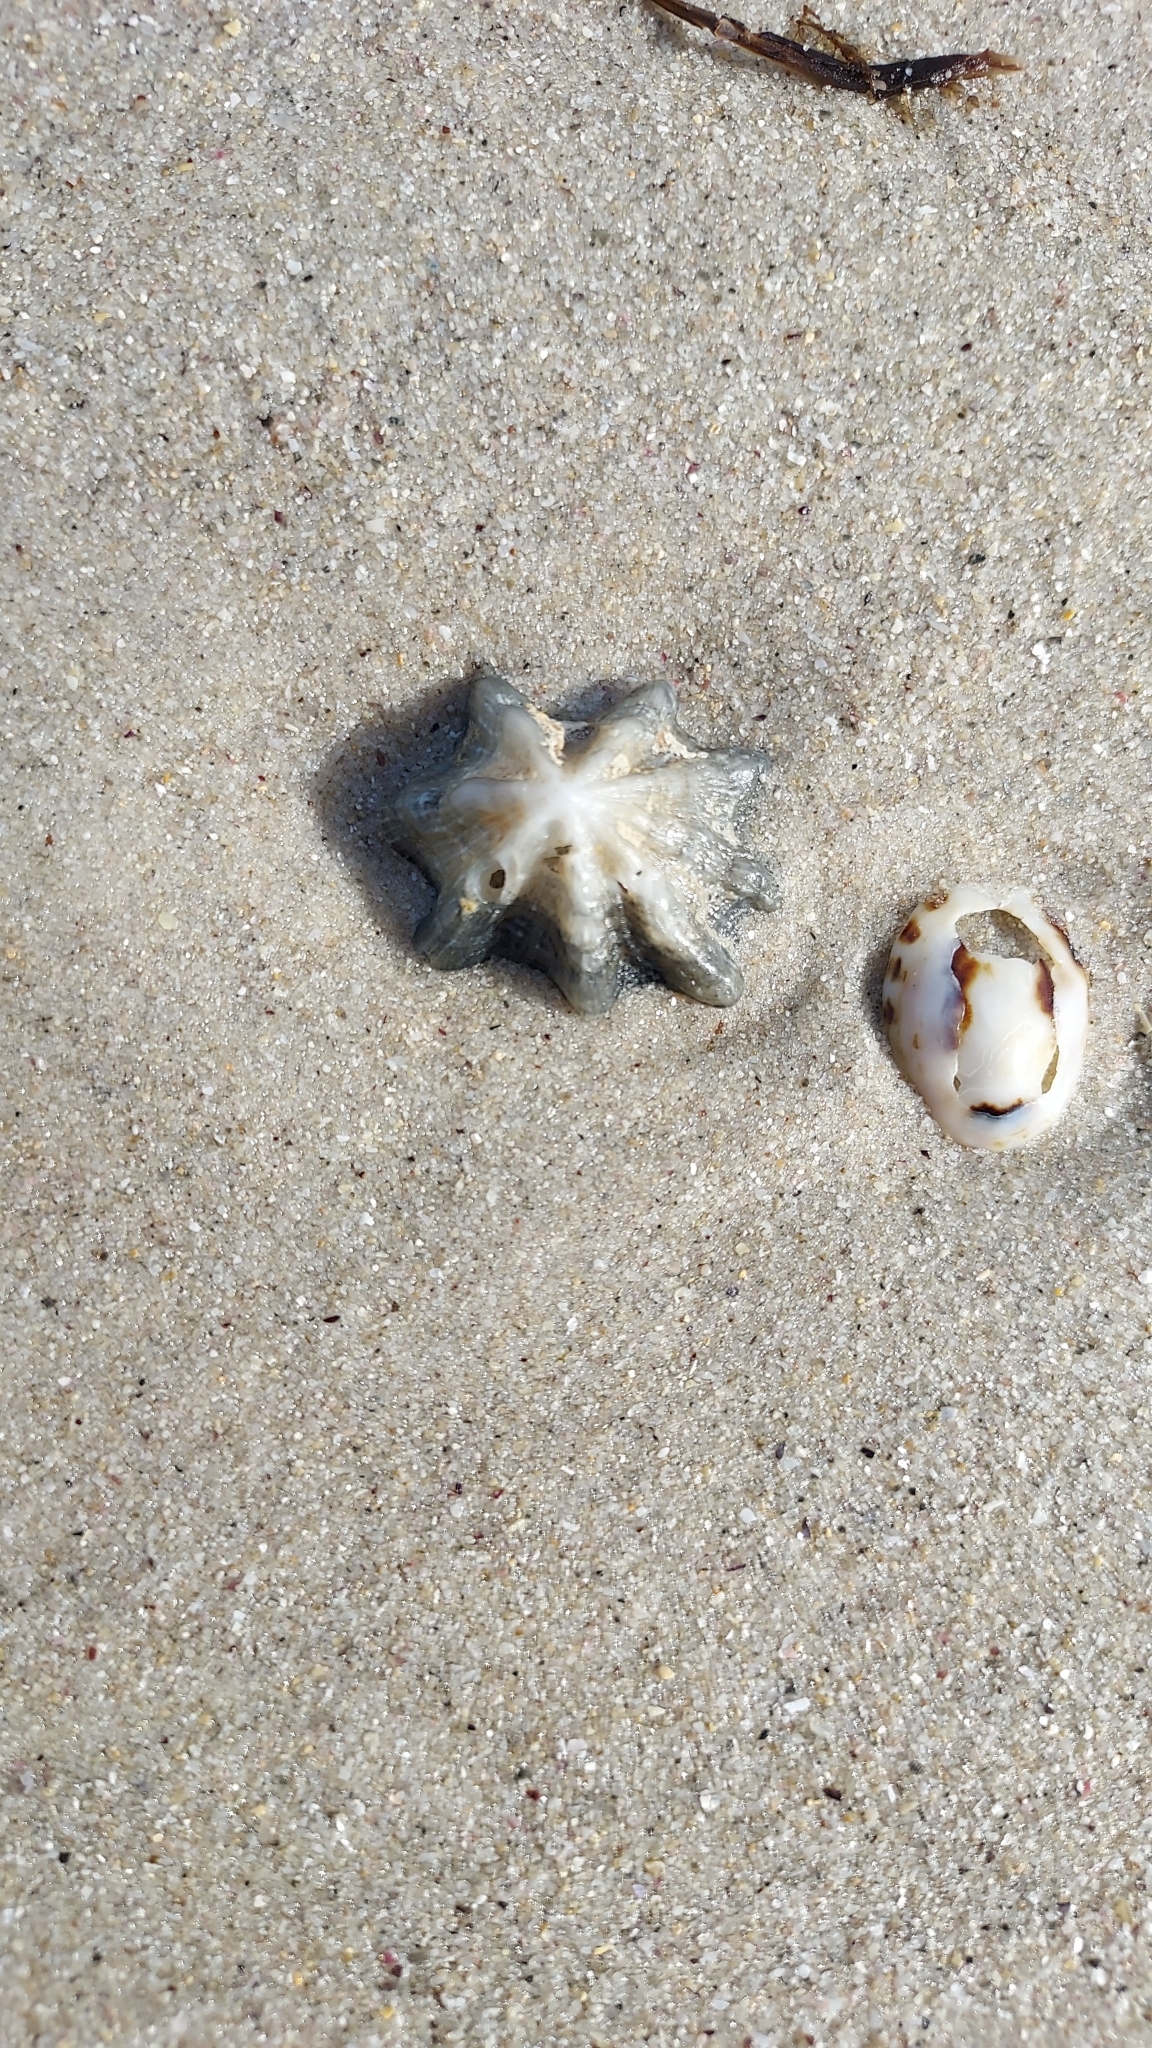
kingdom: Animalia
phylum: Mollusca
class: Gastropoda
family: Patellidae
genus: Scutellastra
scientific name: Scutellastra chapmani
